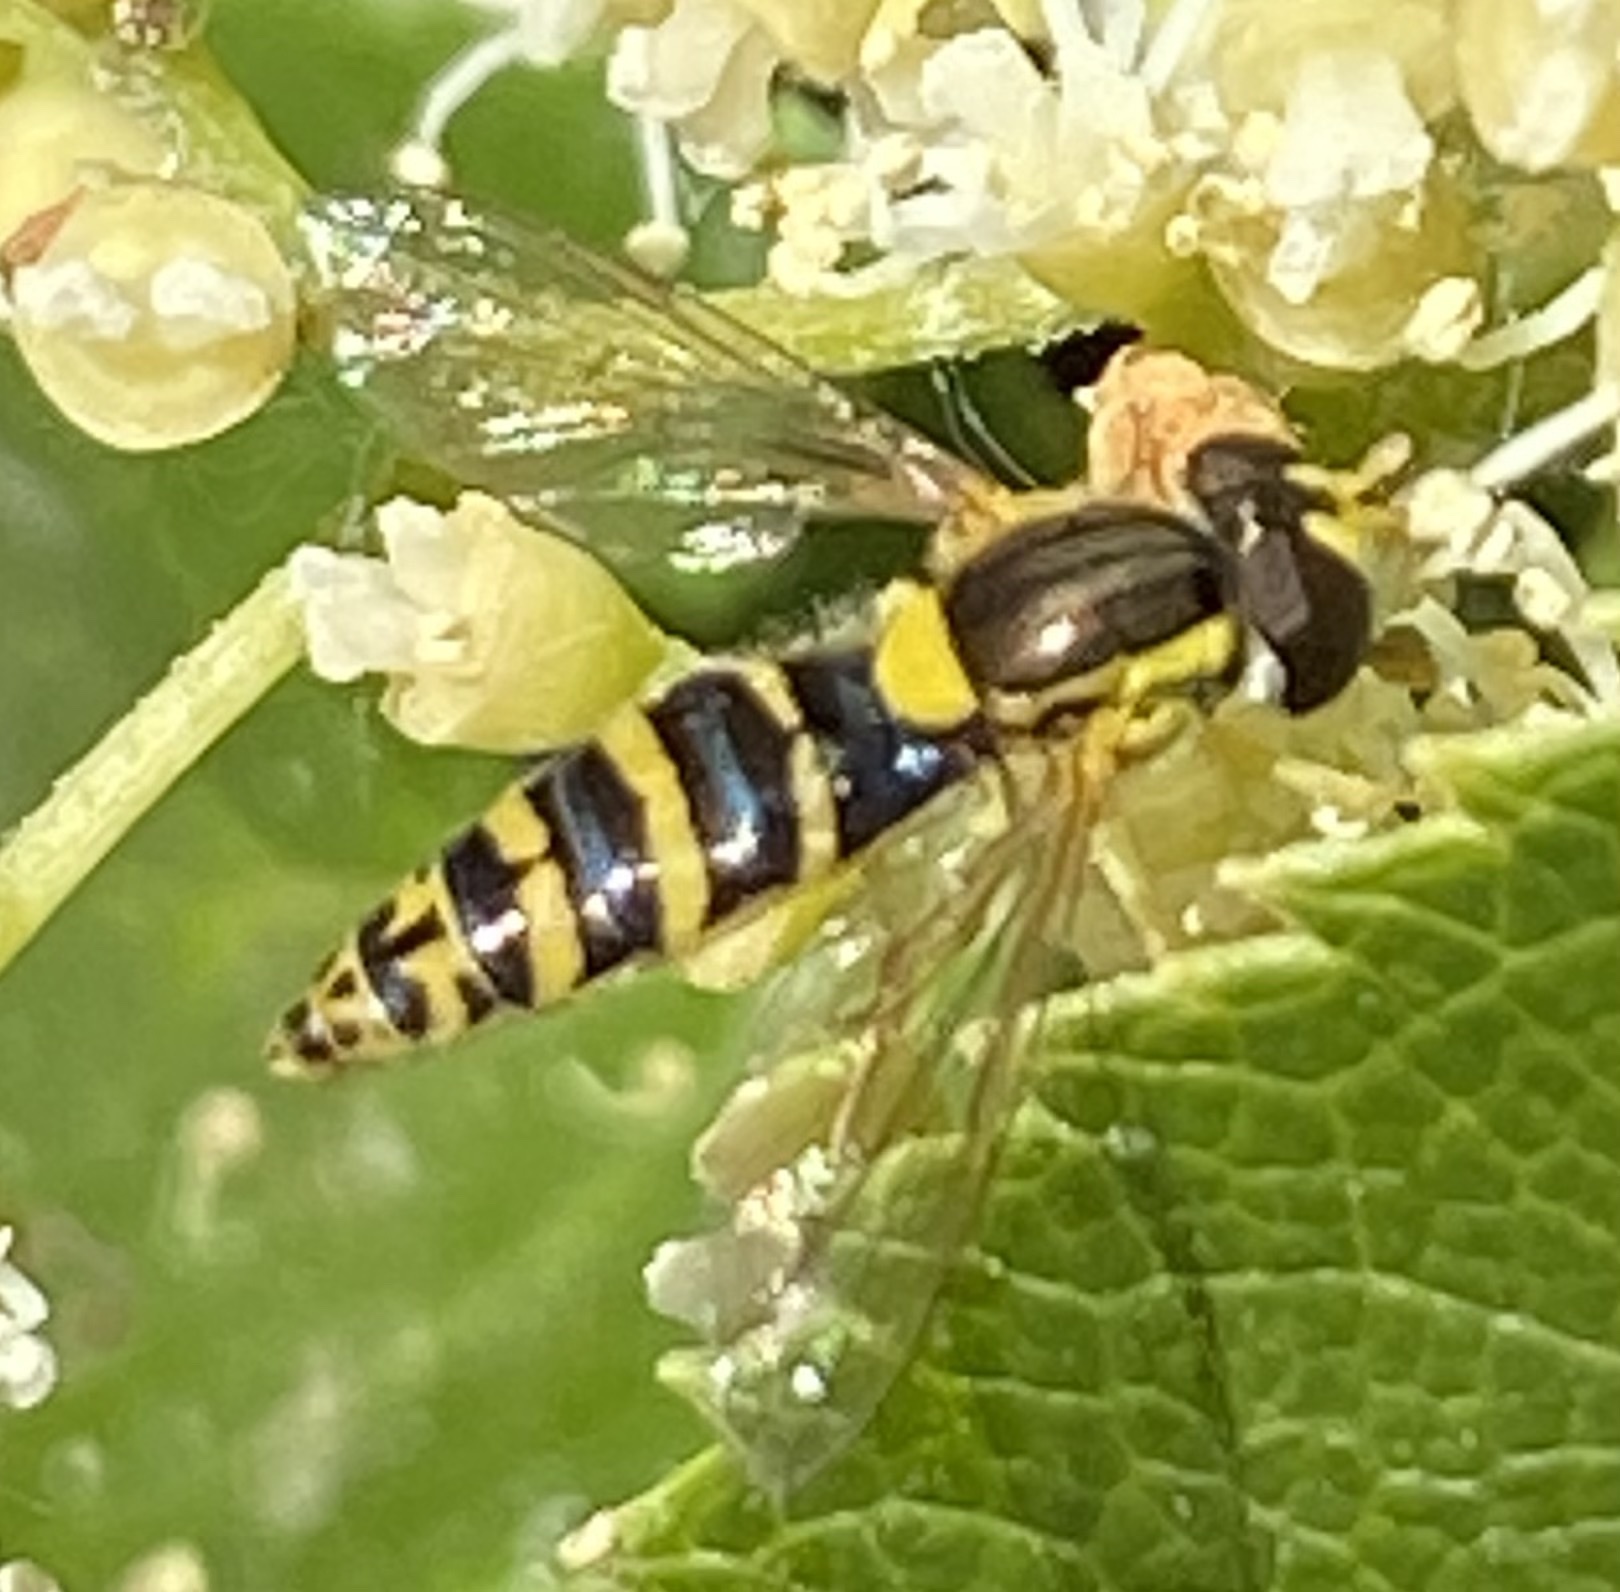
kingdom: Animalia
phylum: Arthropoda
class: Insecta
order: Diptera
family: Syrphidae
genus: Sphaerophoria
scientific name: Sphaerophoria
